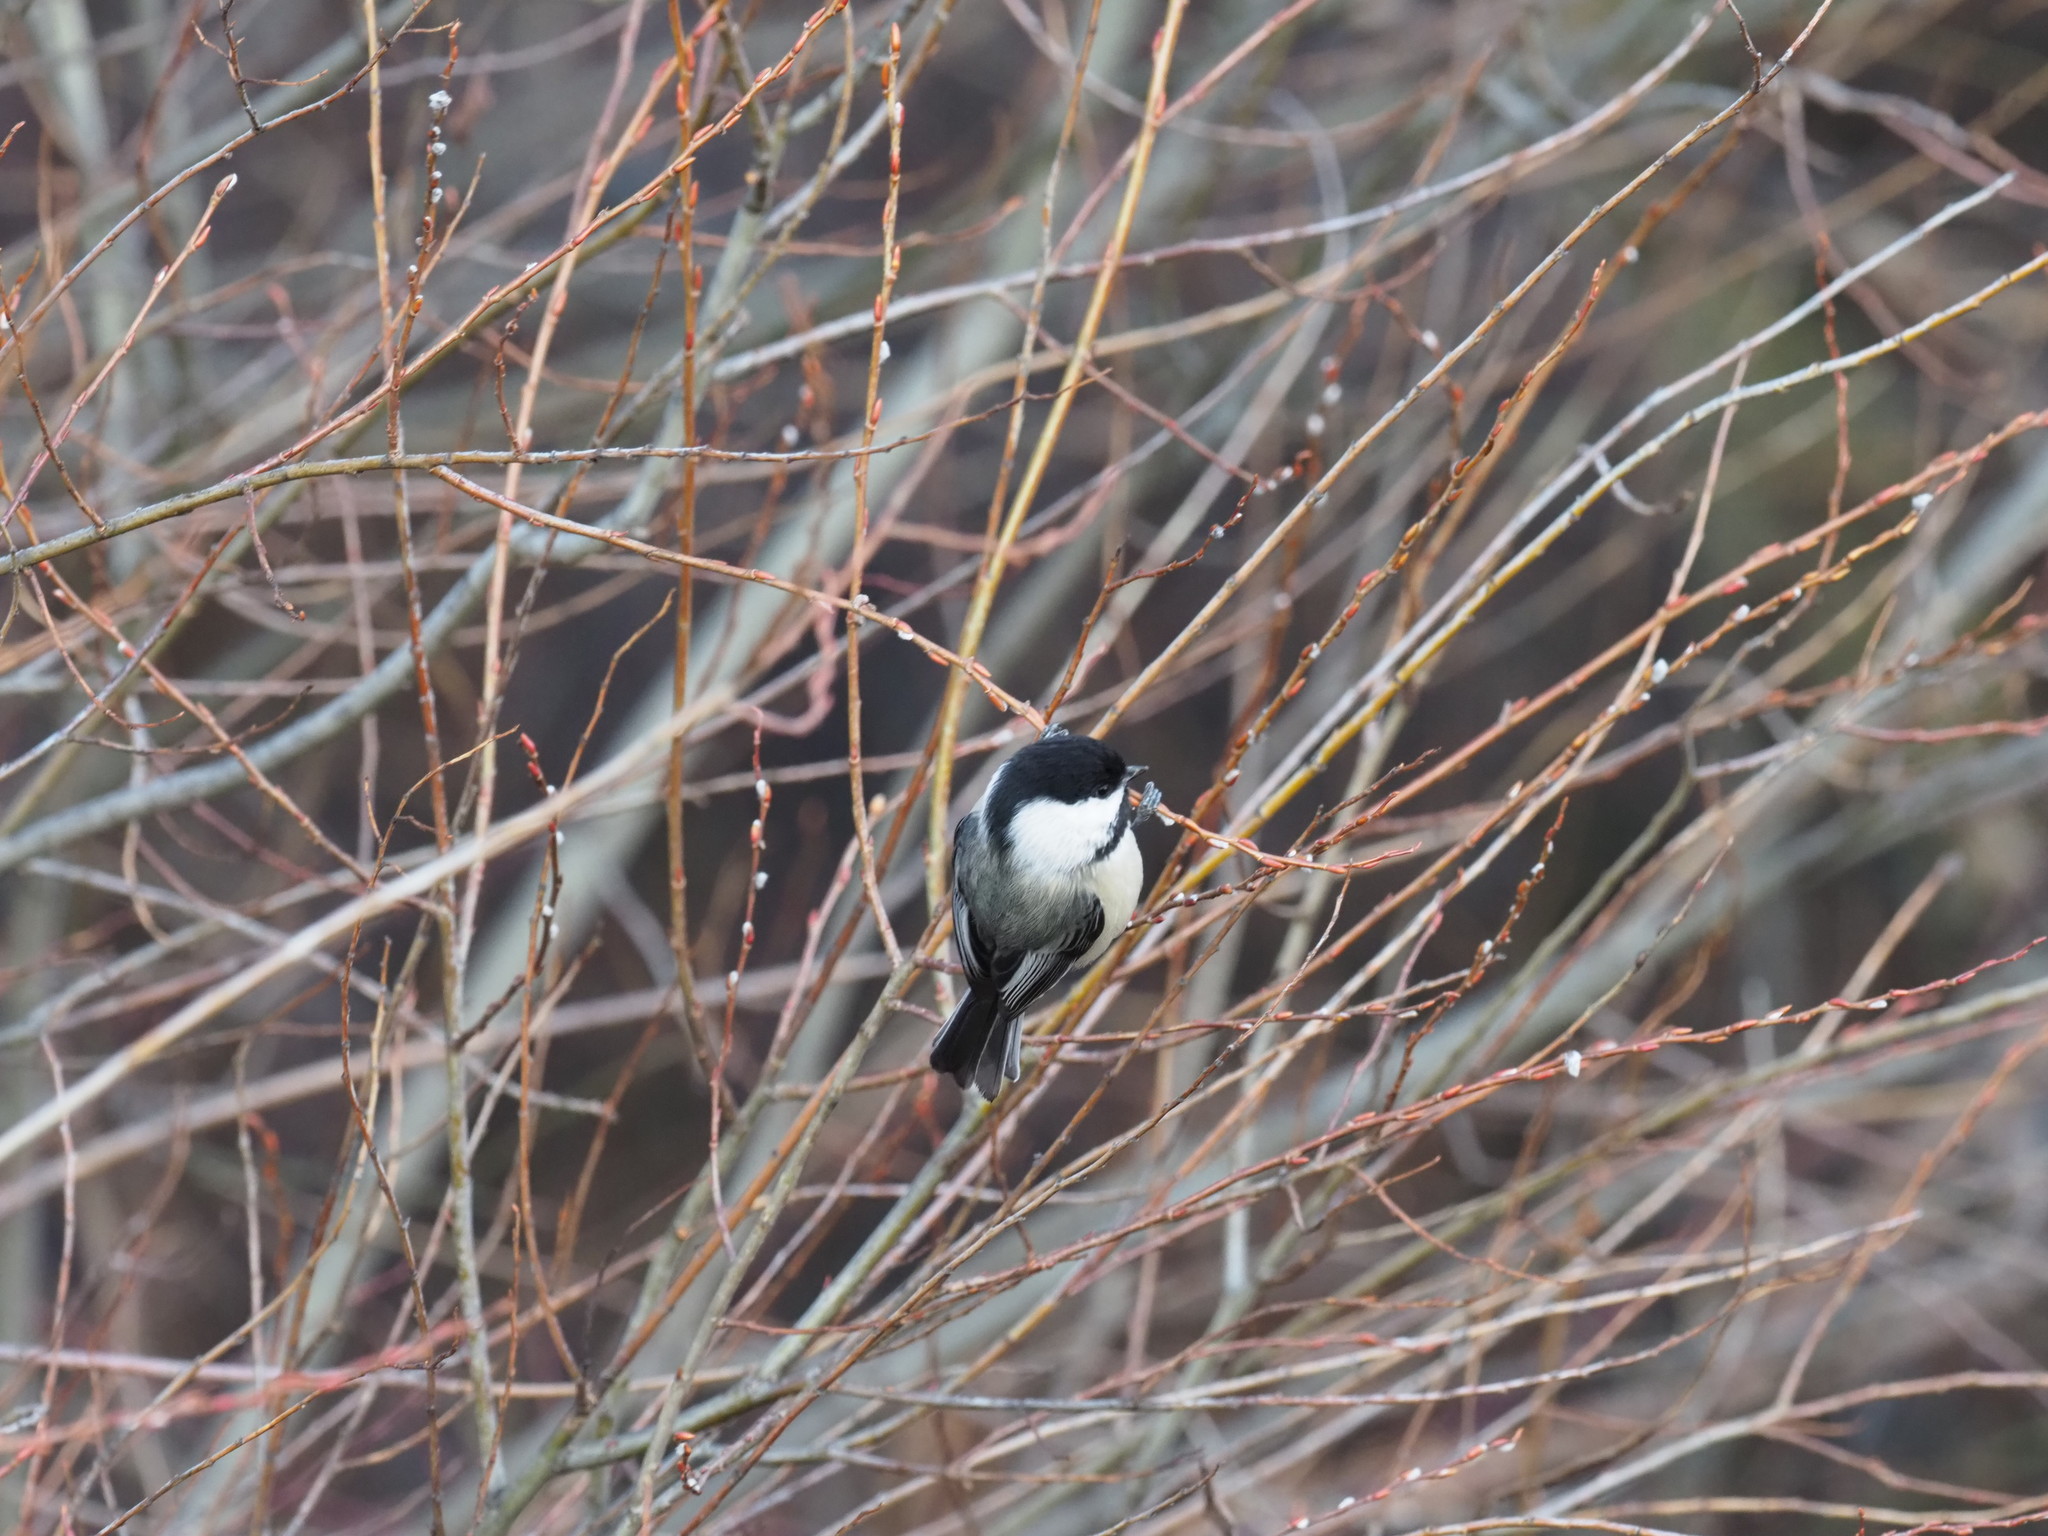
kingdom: Animalia
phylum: Chordata
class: Aves
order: Passeriformes
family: Paridae
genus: Poecile
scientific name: Poecile atricapillus
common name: Black-capped chickadee
